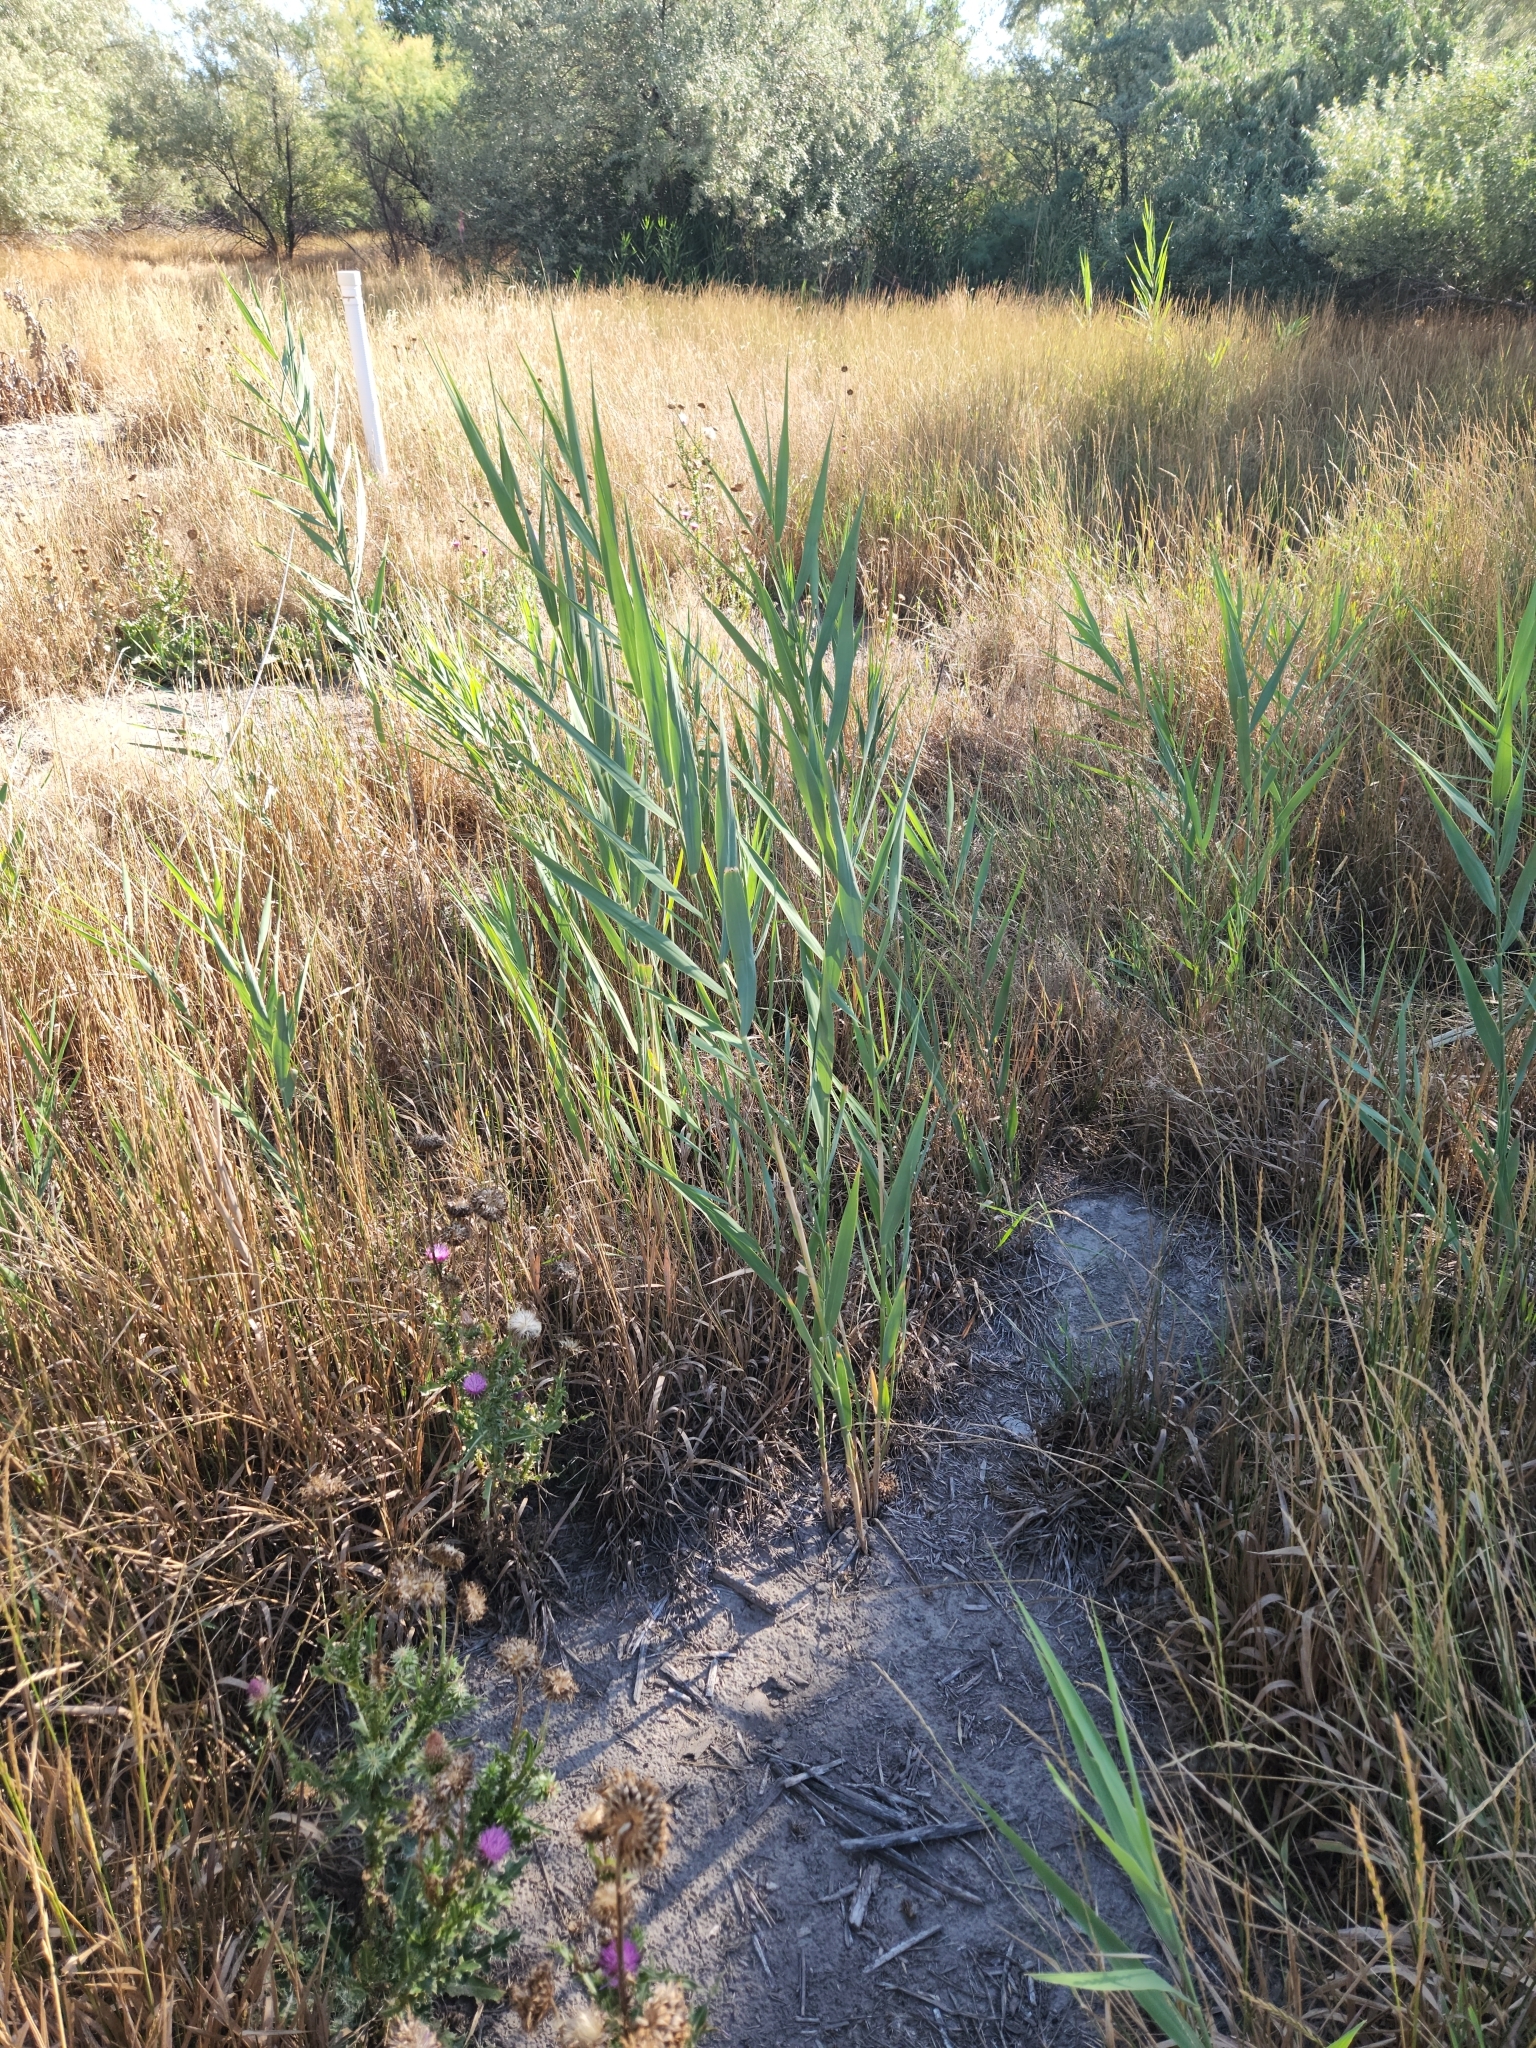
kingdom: Plantae
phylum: Tracheophyta
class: Liliopsida
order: Poales
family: Poaceae
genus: Phragmites
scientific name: Phragmites australis
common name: Common reed
